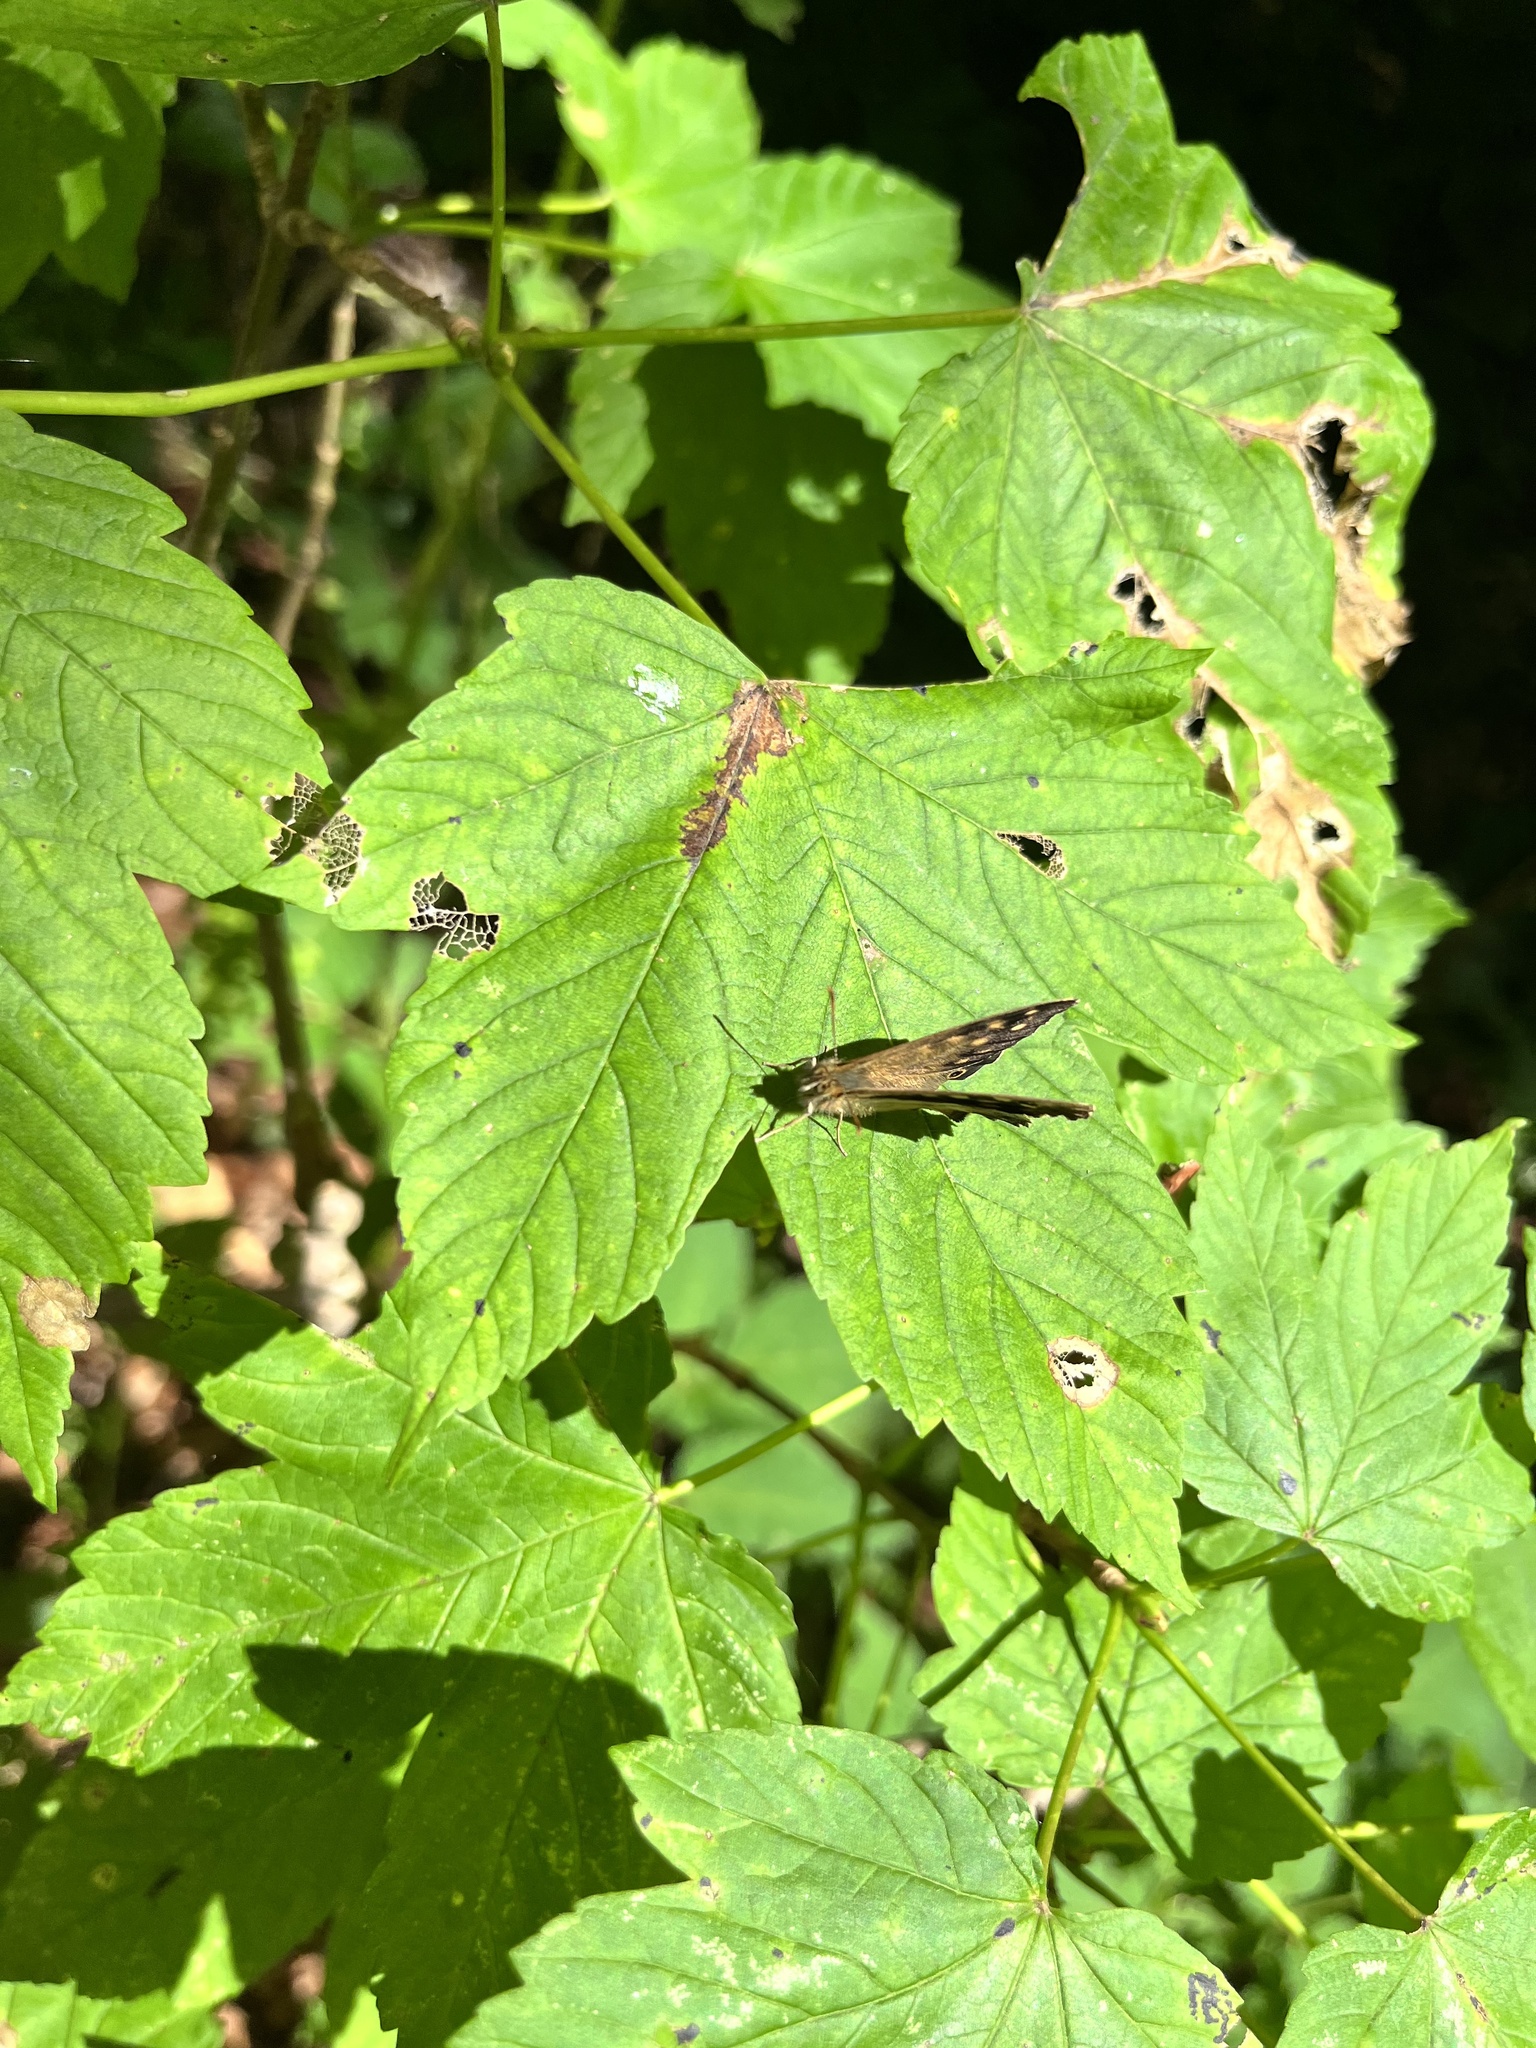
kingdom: Animalia
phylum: Arthropoda
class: Insecta
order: Lepidoptera
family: Nymphalidae
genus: Pararge
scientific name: Pararge aegeria
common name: Speckled wood
